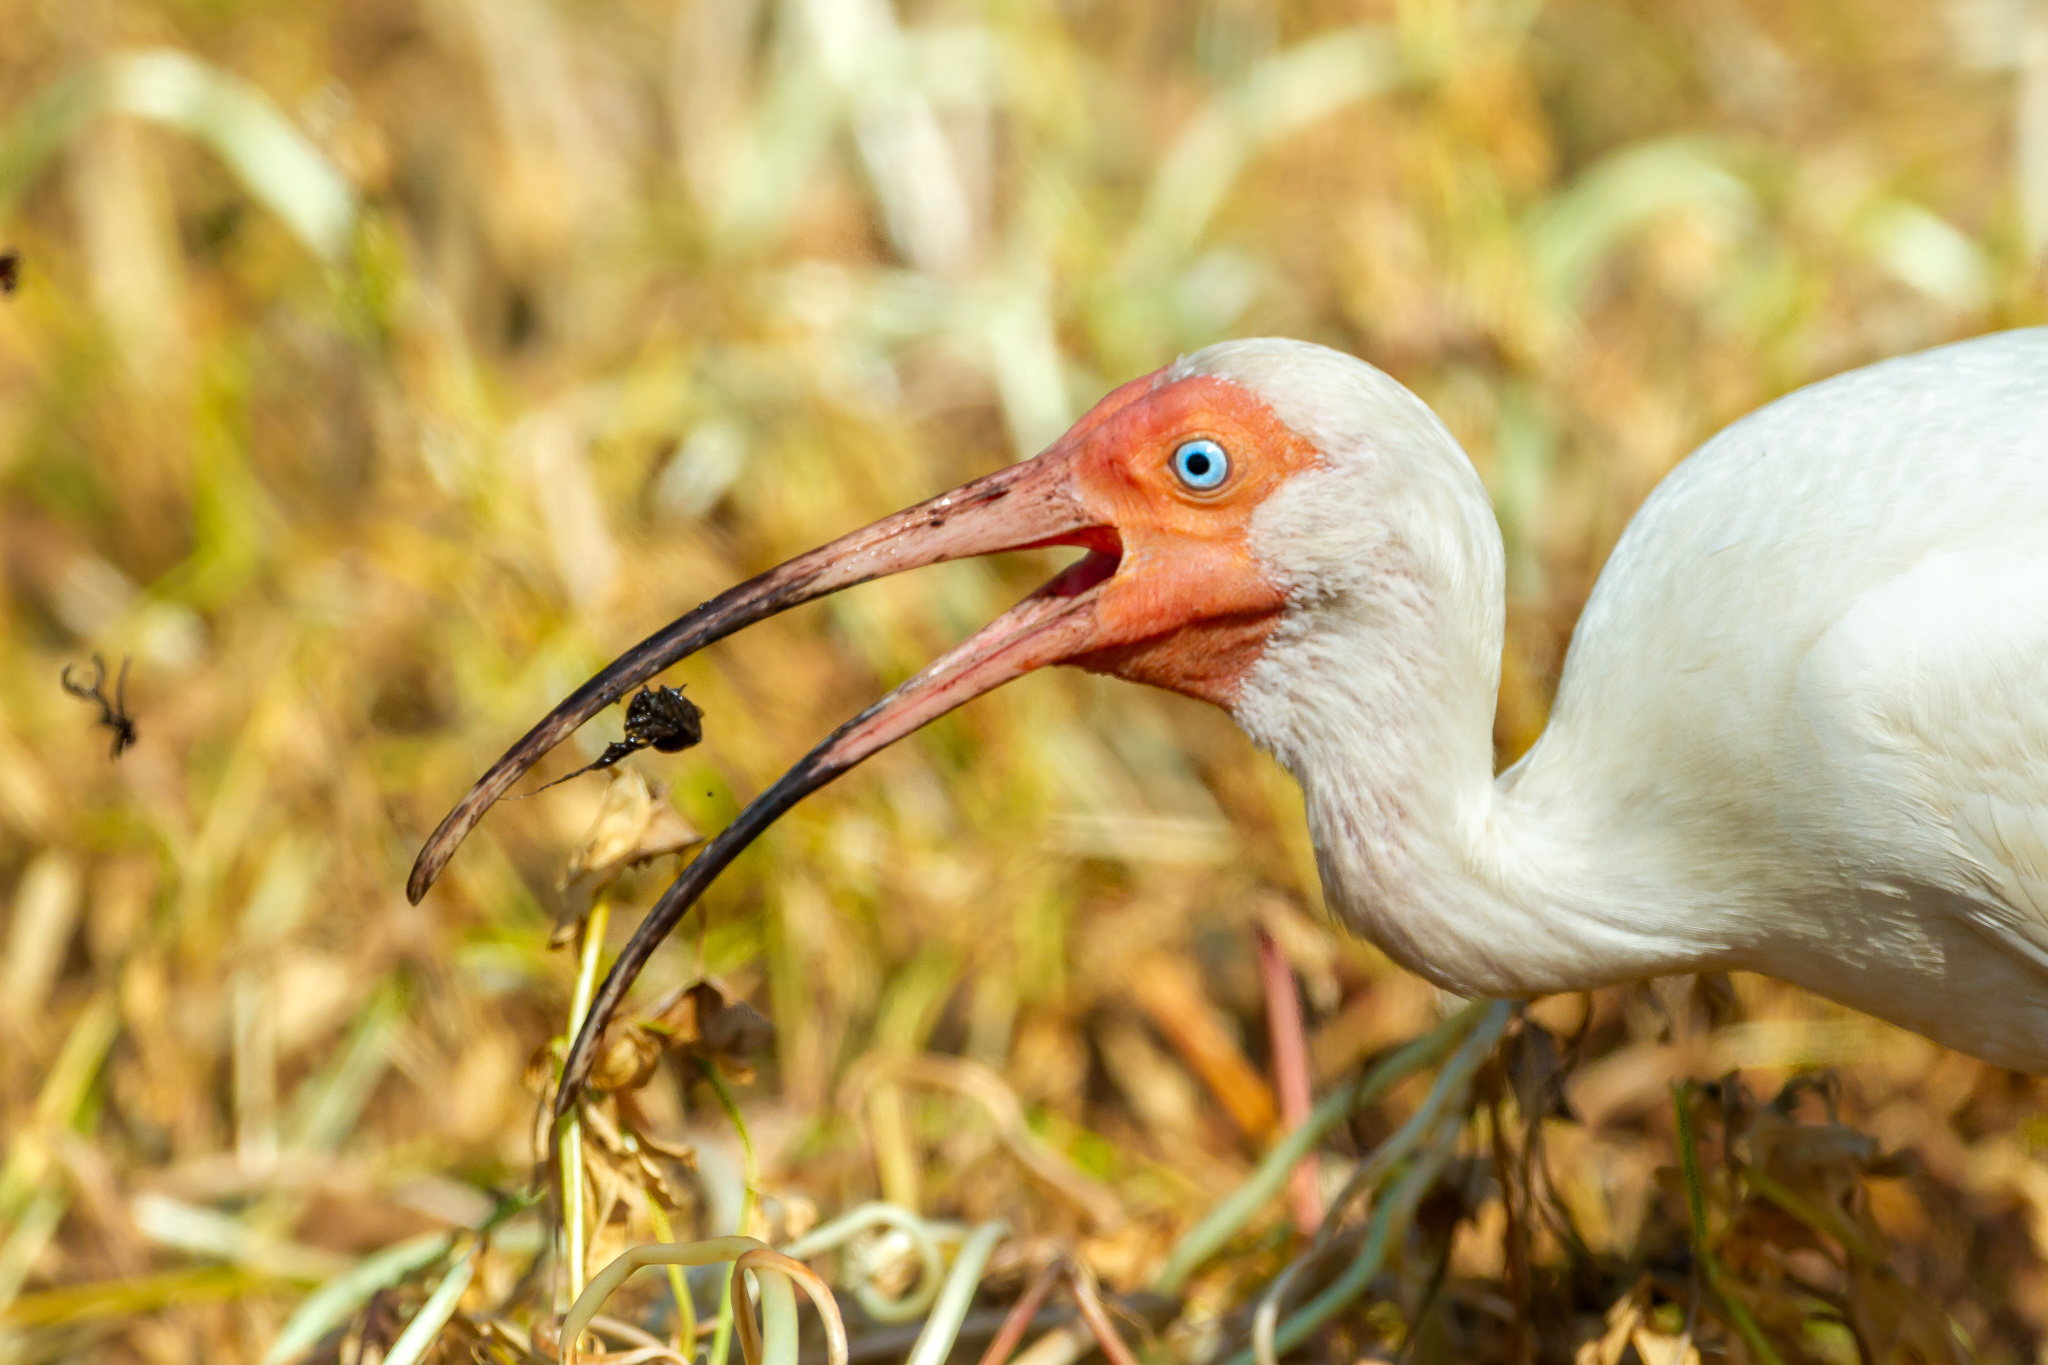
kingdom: Animalia
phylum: Chordata
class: Aves
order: Pelecaniformes
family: Threskiornithidae
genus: Eudocimus
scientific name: Eudocimus albus
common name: White ibis
